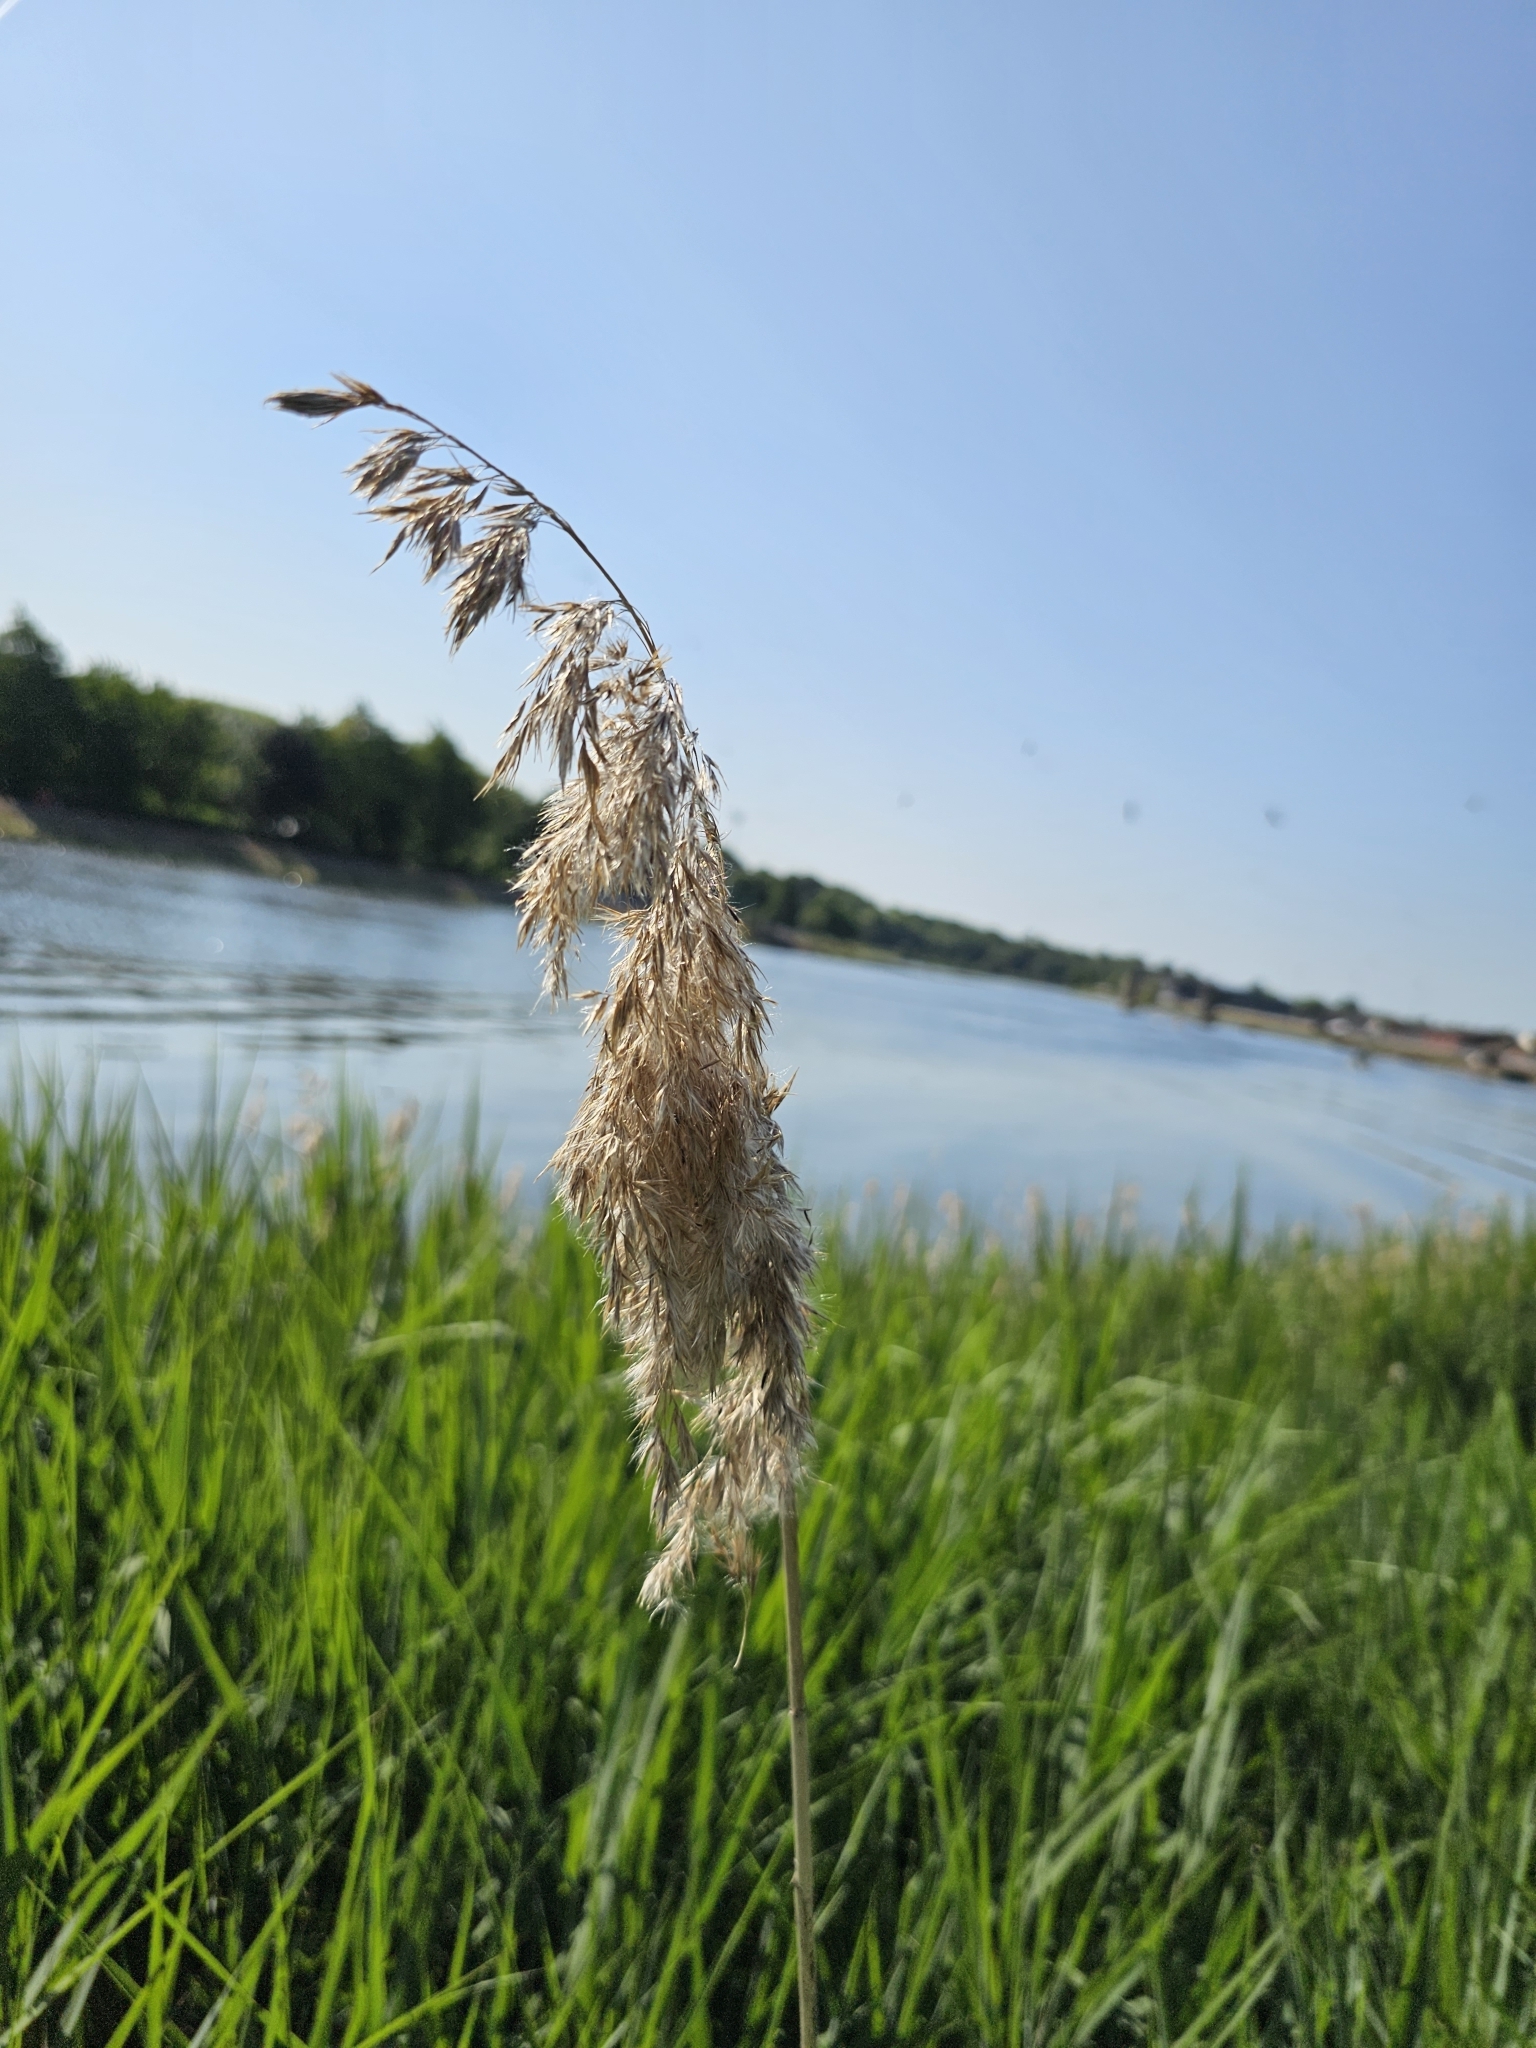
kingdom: Plantae
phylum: Tracheophyta
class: Liliopsida
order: Poales
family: Poaceae
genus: Phragmites
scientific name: Phragmites australis
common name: Common reed
